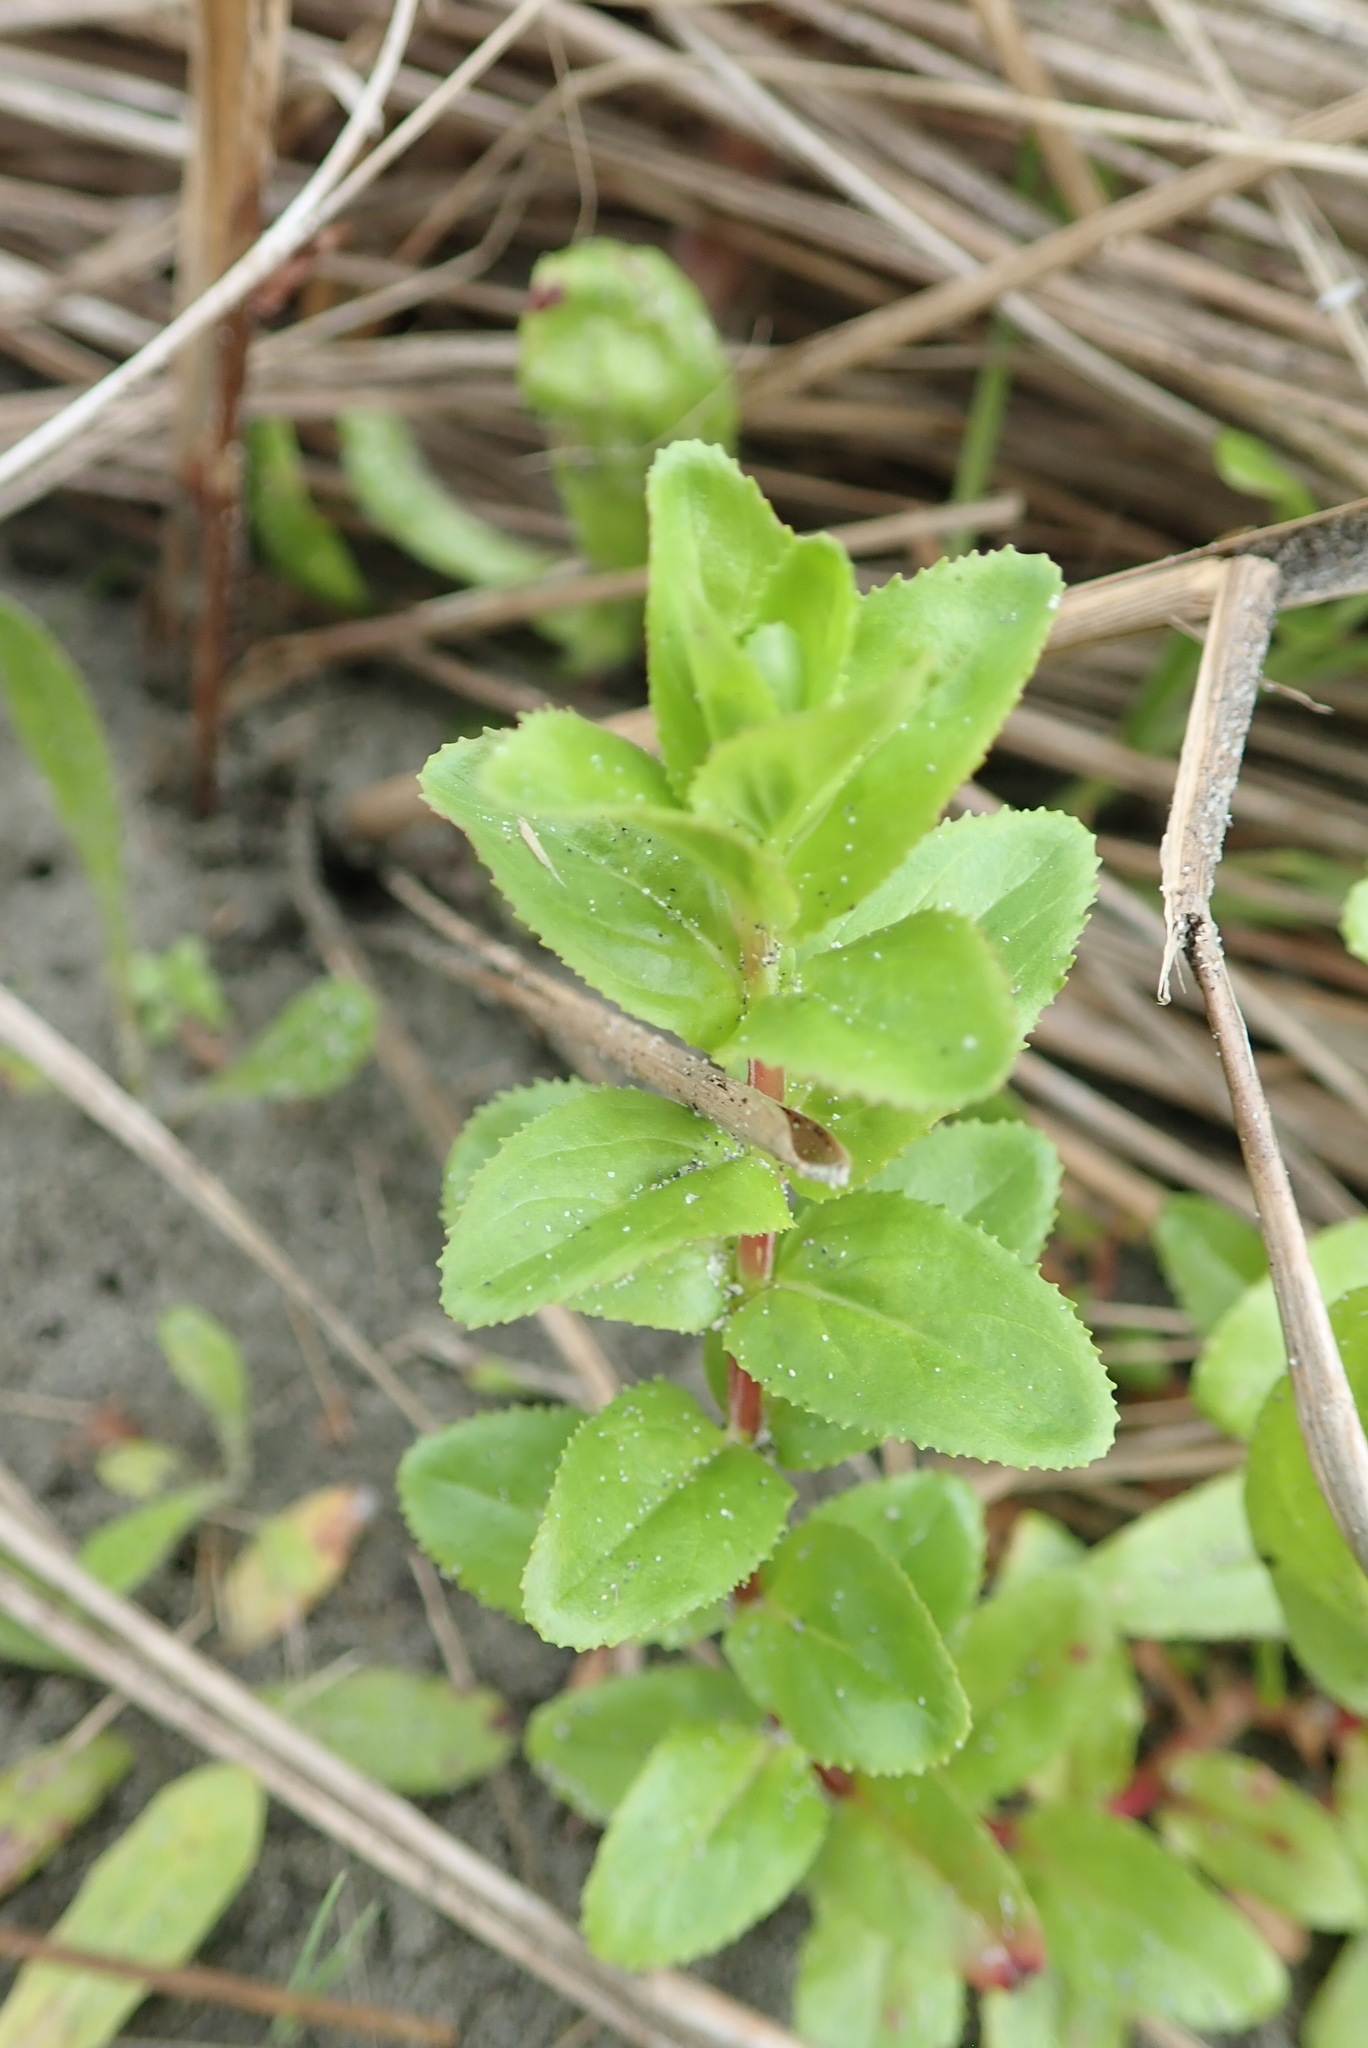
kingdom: Plantae
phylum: Tracheophyta
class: Magnoliopsida
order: Myrtales
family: Onagraceae
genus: Epilobium
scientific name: Epilobium billardiereanum
